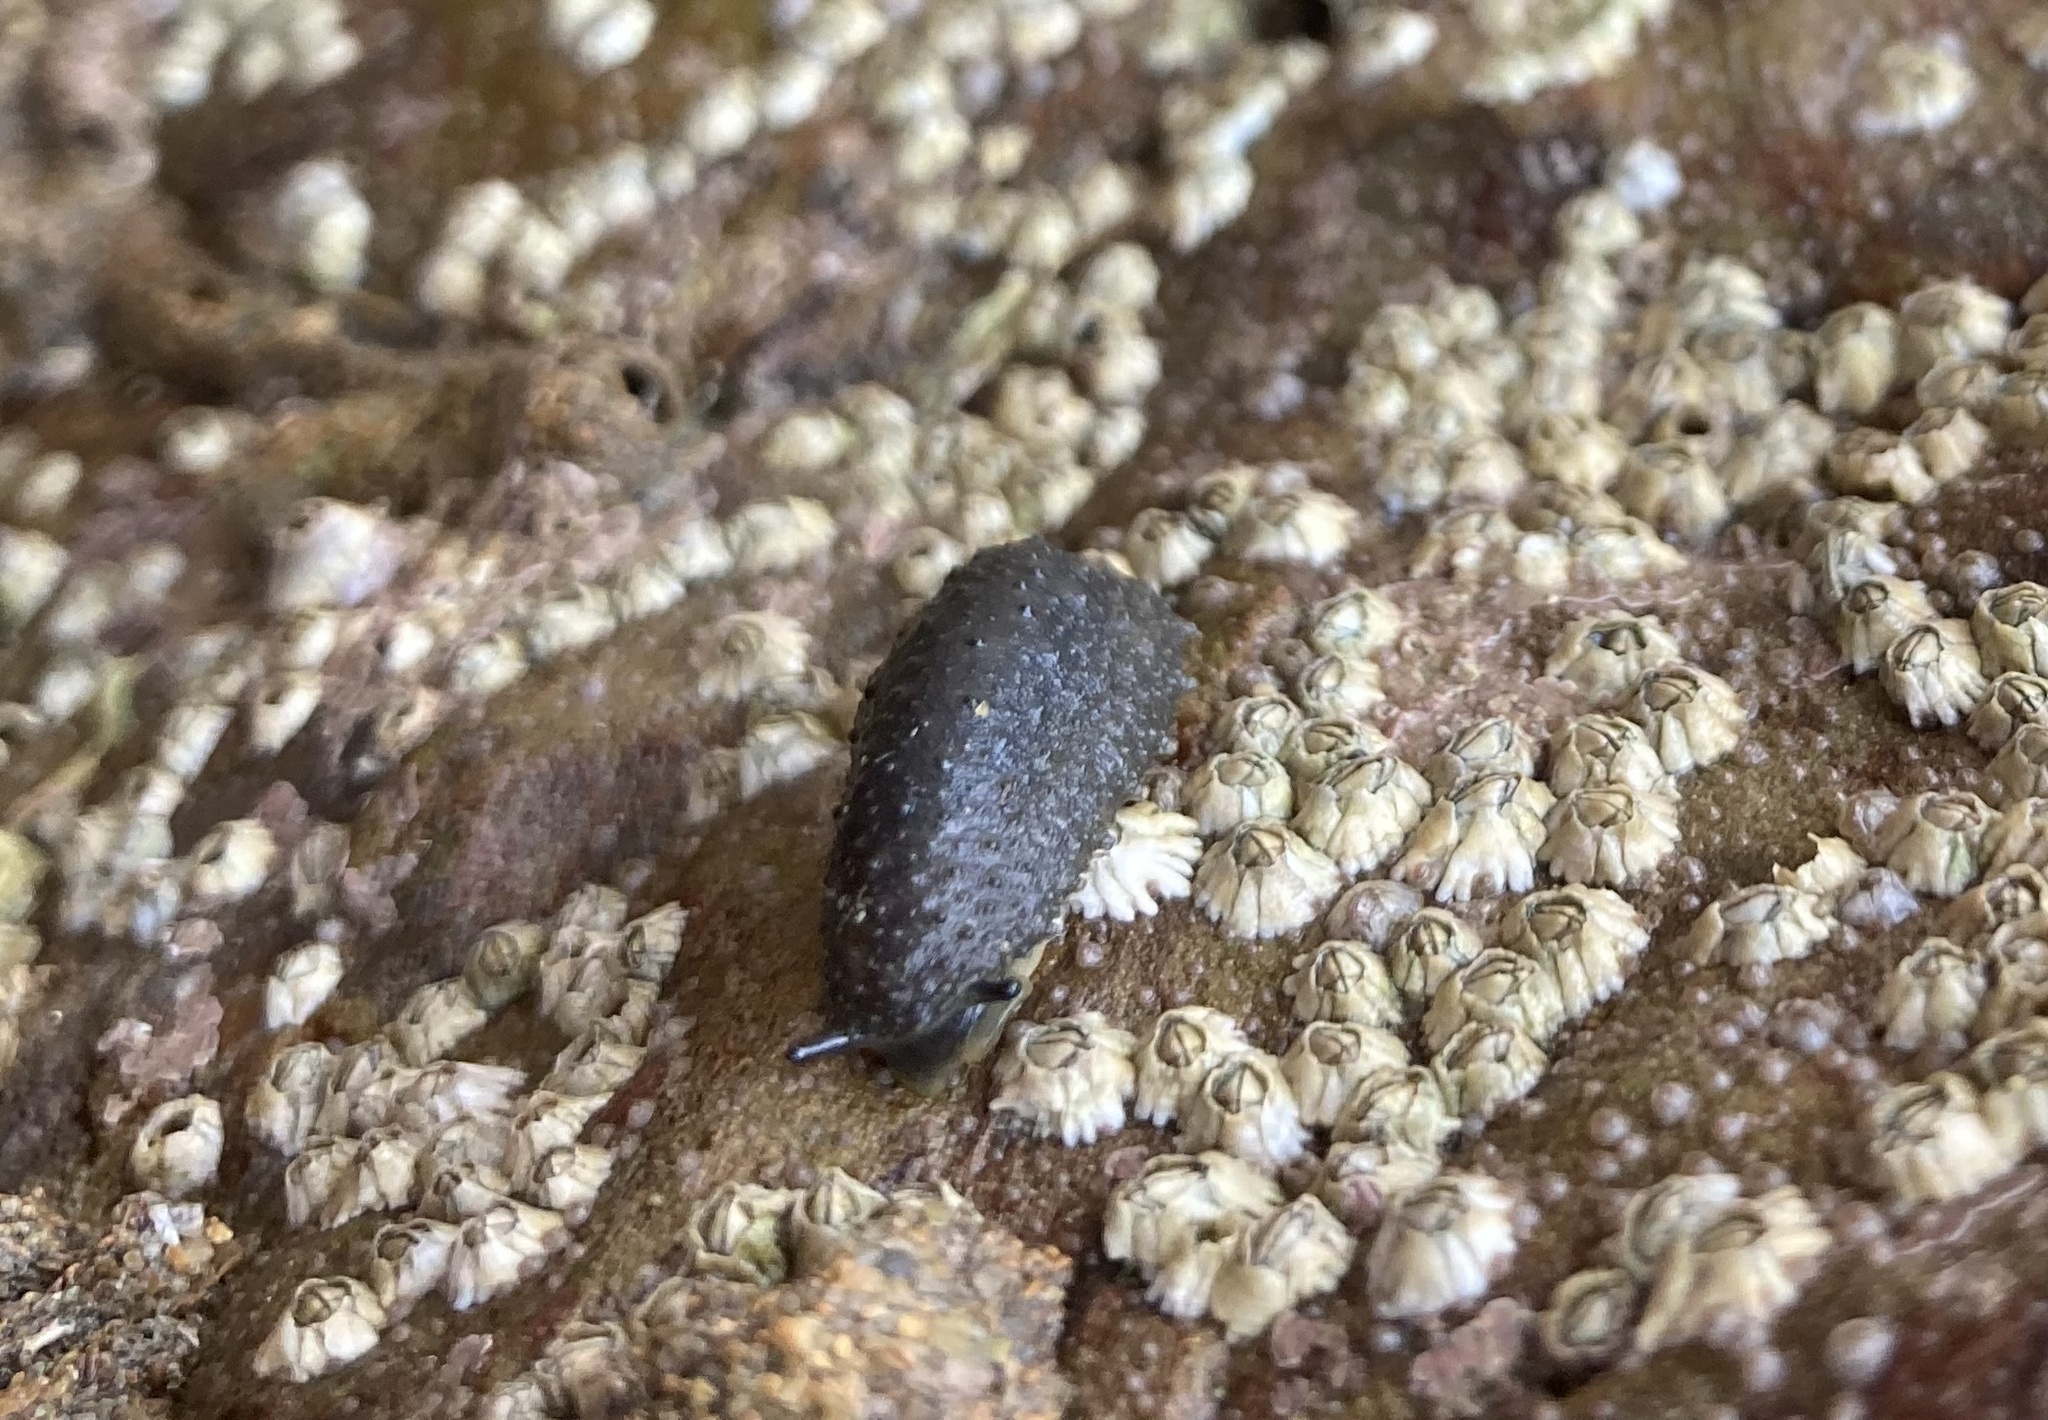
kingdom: Animalia
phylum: Mollusca
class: Gastropoda
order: Systellommatophora
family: Onchidiidae
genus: Onchidella
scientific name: Onchidella celtica
